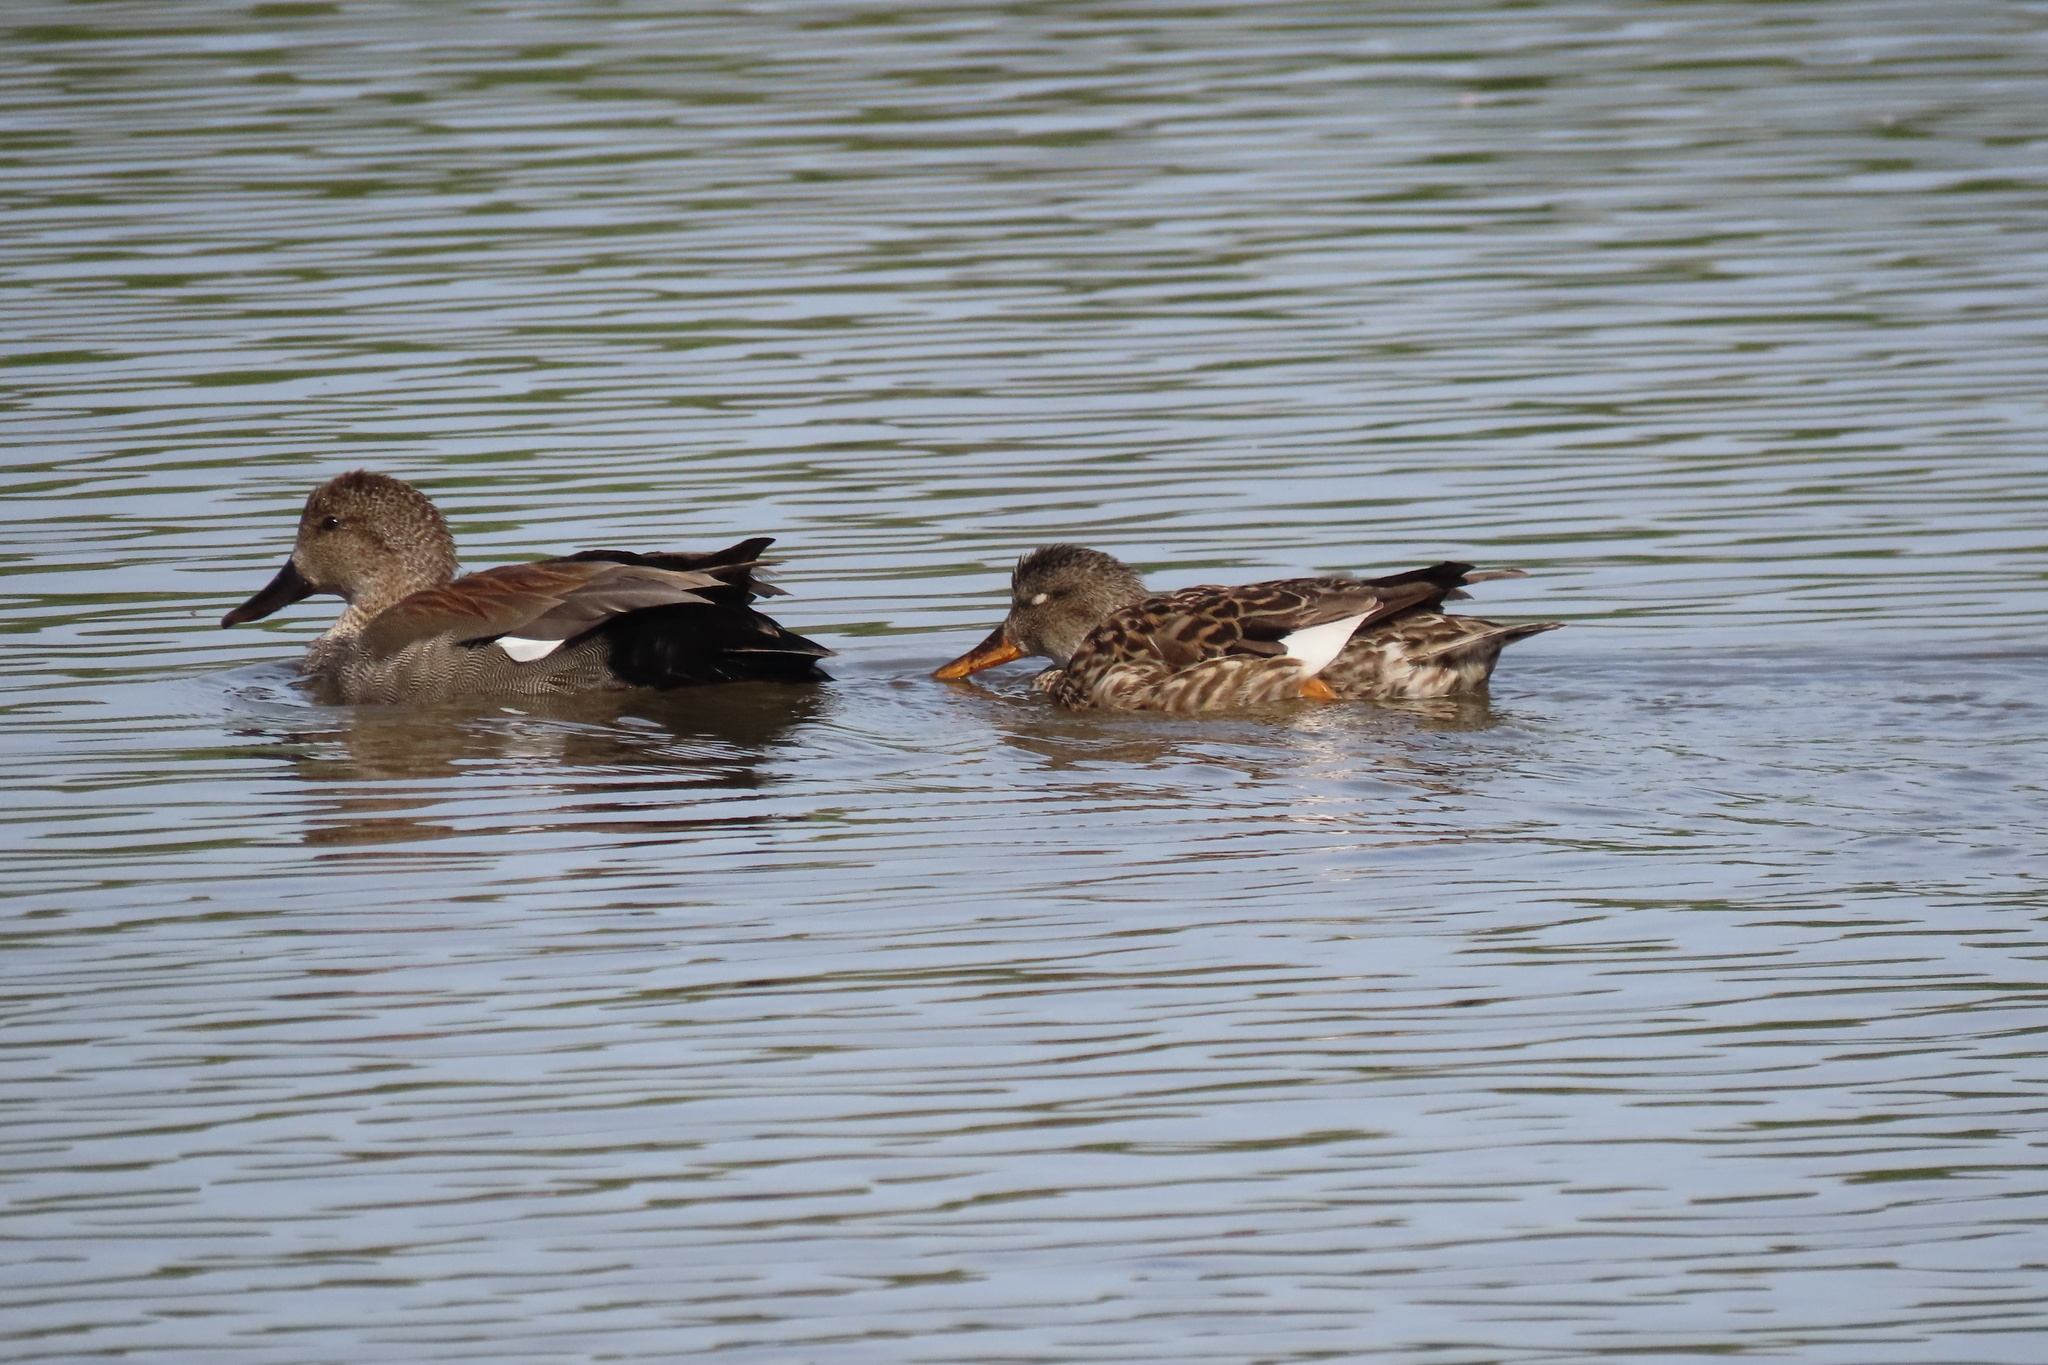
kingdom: Animalia
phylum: Chordata
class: Aves
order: Anseriformes
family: Anatidae
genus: Mareca
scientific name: Mareca strepera
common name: Gadwall
